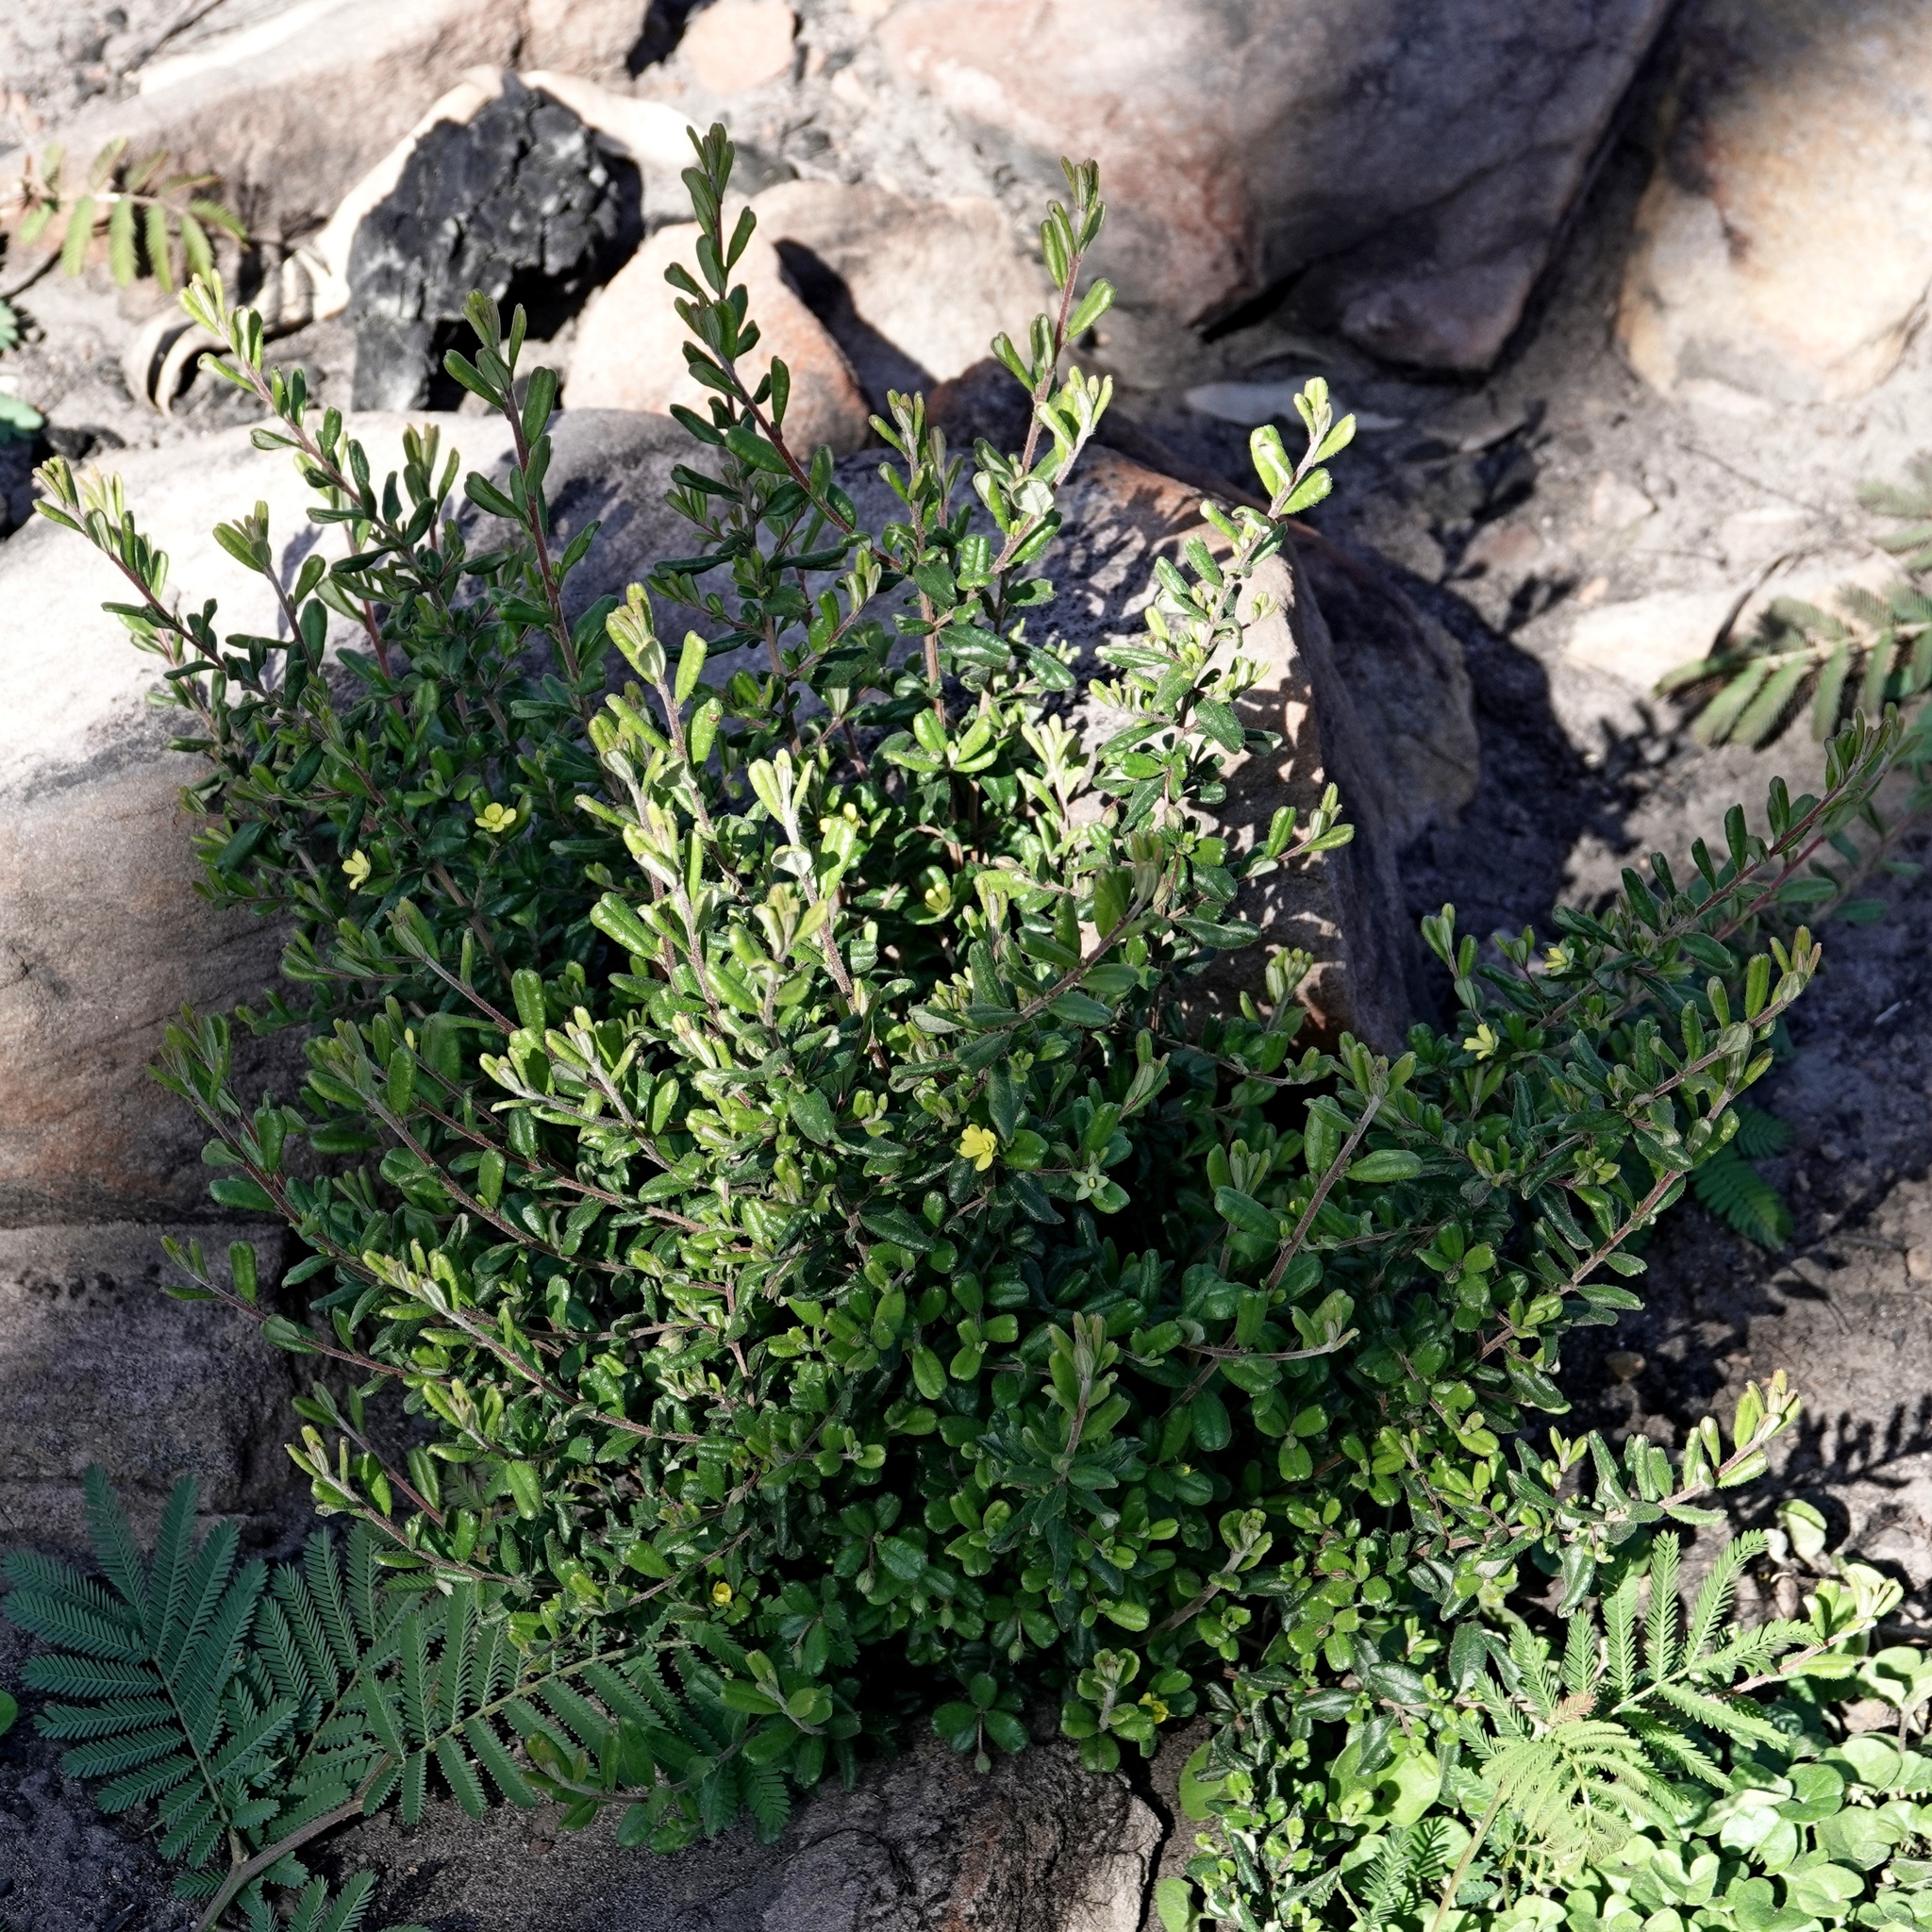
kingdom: Plantae
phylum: Tracheophyta
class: Magnoliopsida
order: Dilleniales
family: Dilleniaceae
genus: Hibbertia
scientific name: Hibbertia aspera
